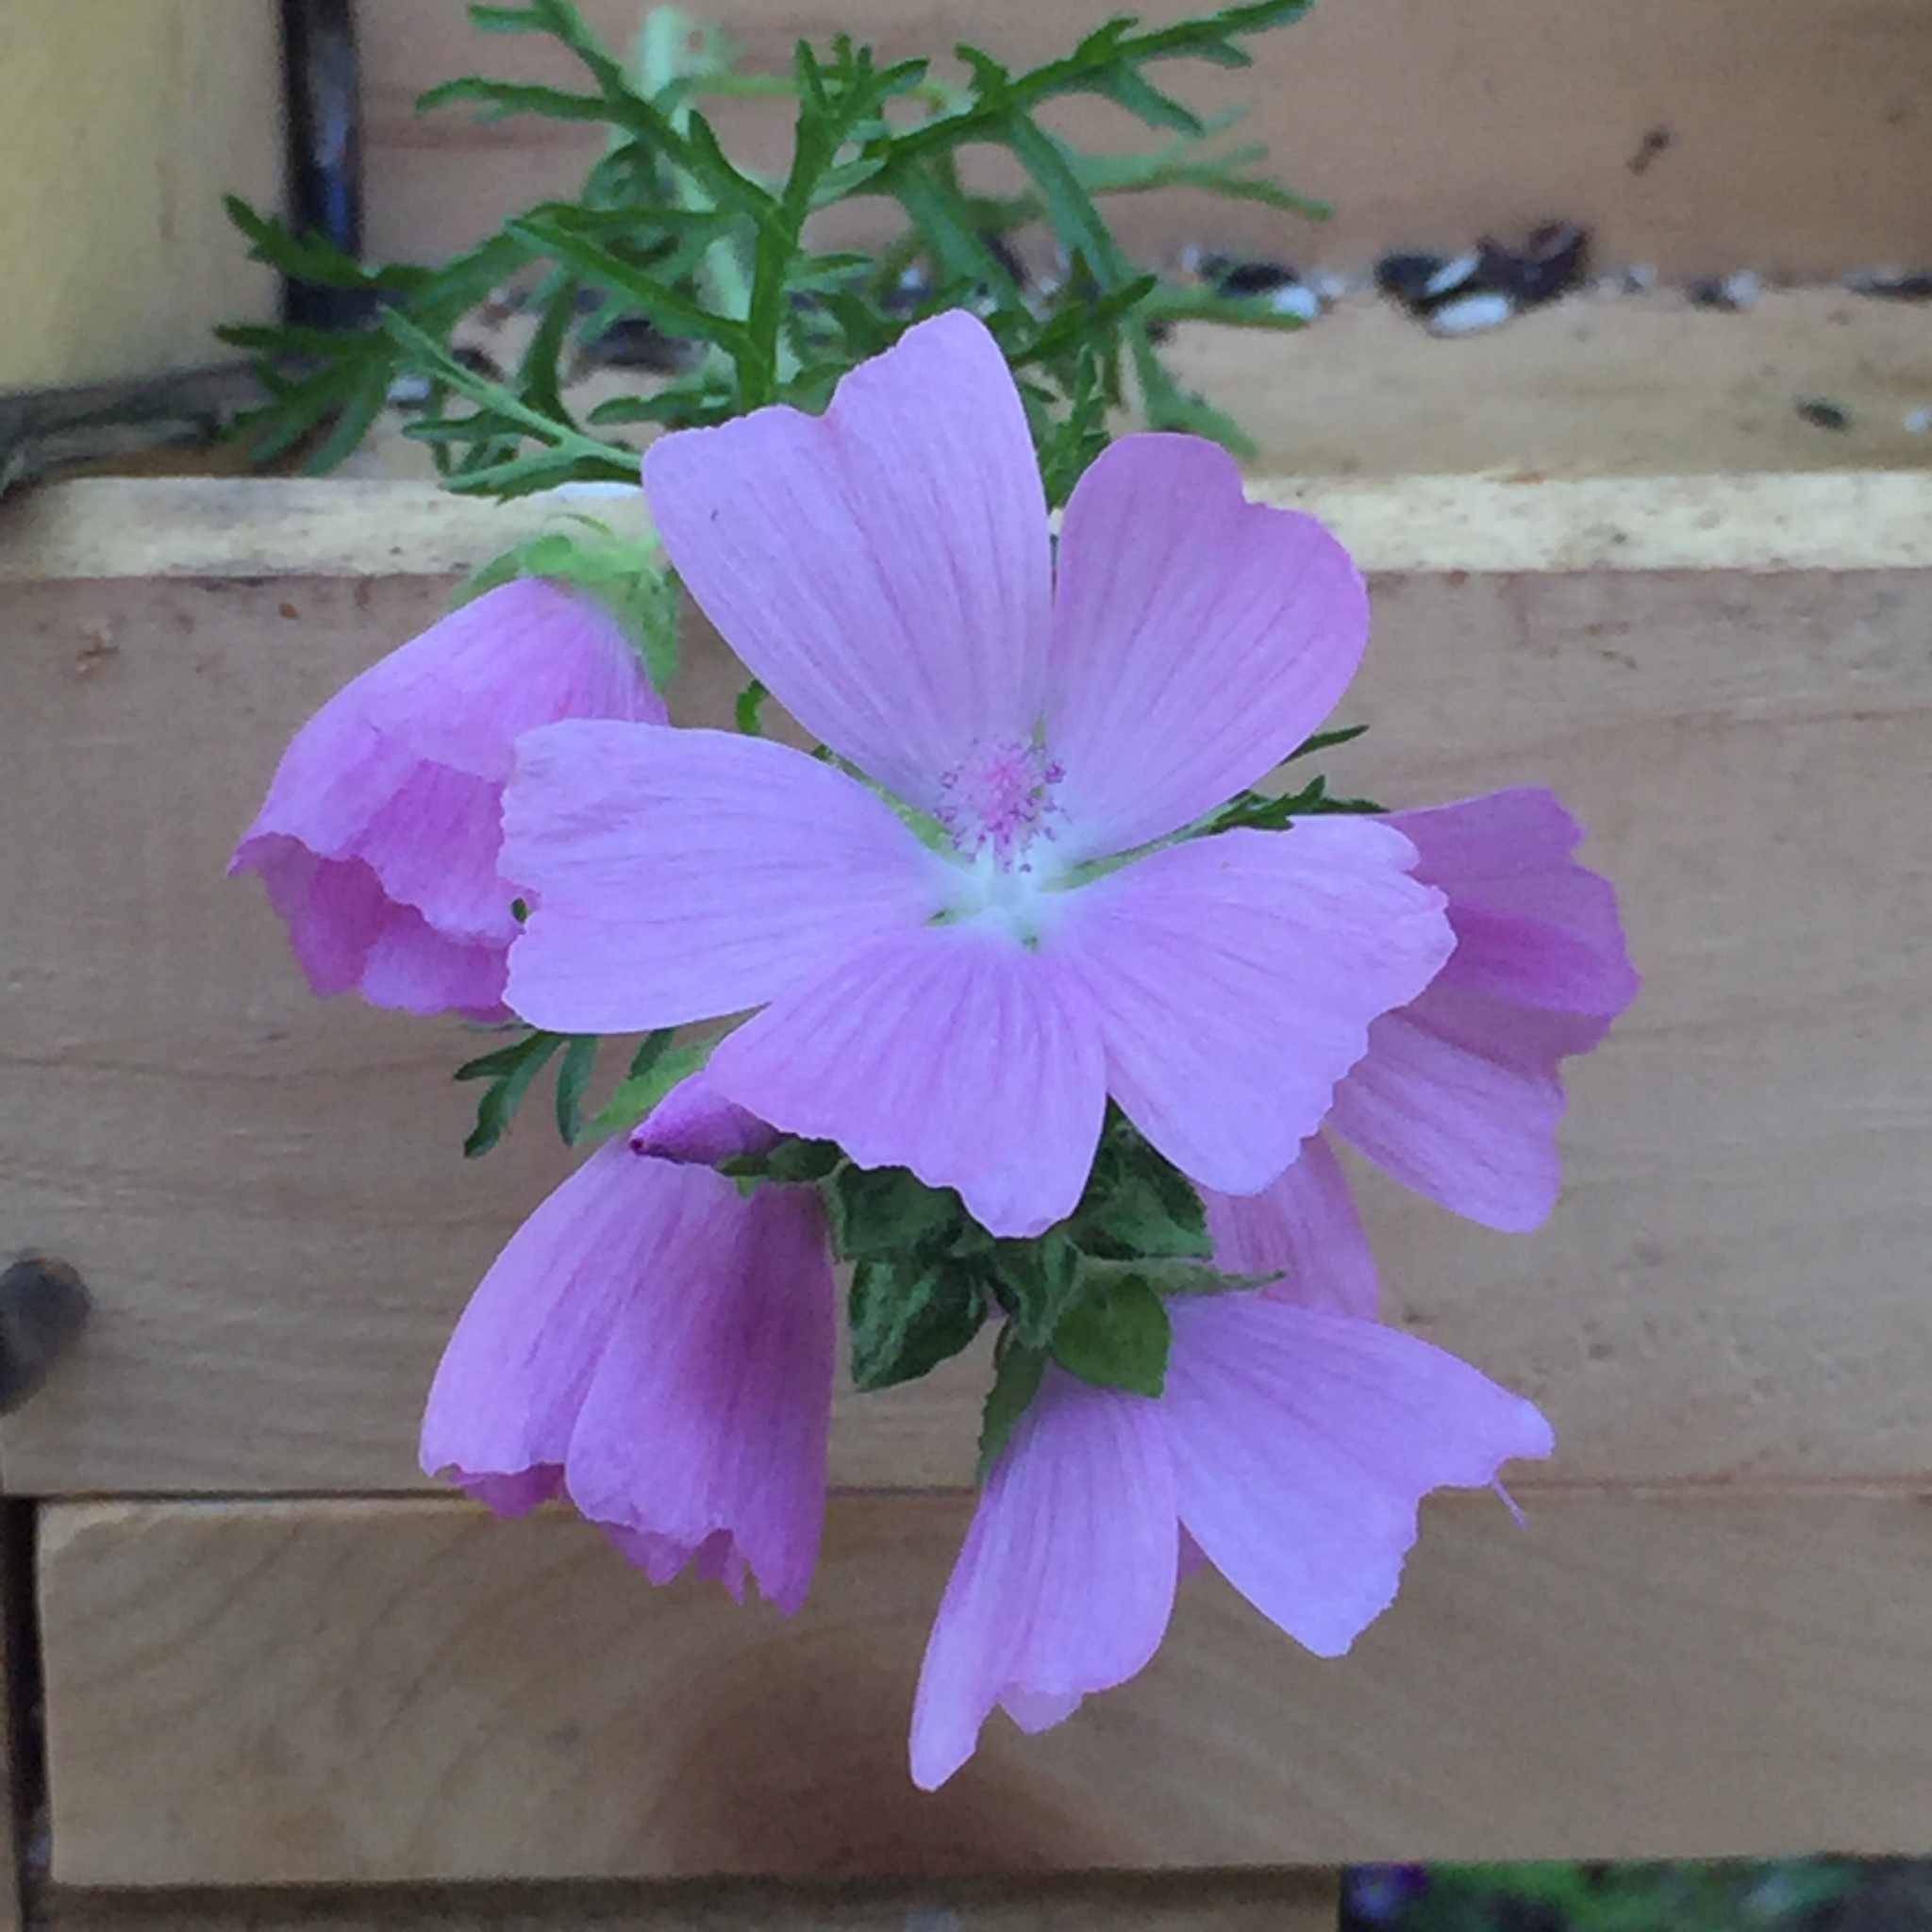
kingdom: Plantae
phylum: Tracheophyta
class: Magnoliopsida
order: Malvales
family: Malvaceae
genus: Malva
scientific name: Malva moschata
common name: Musk mallow
